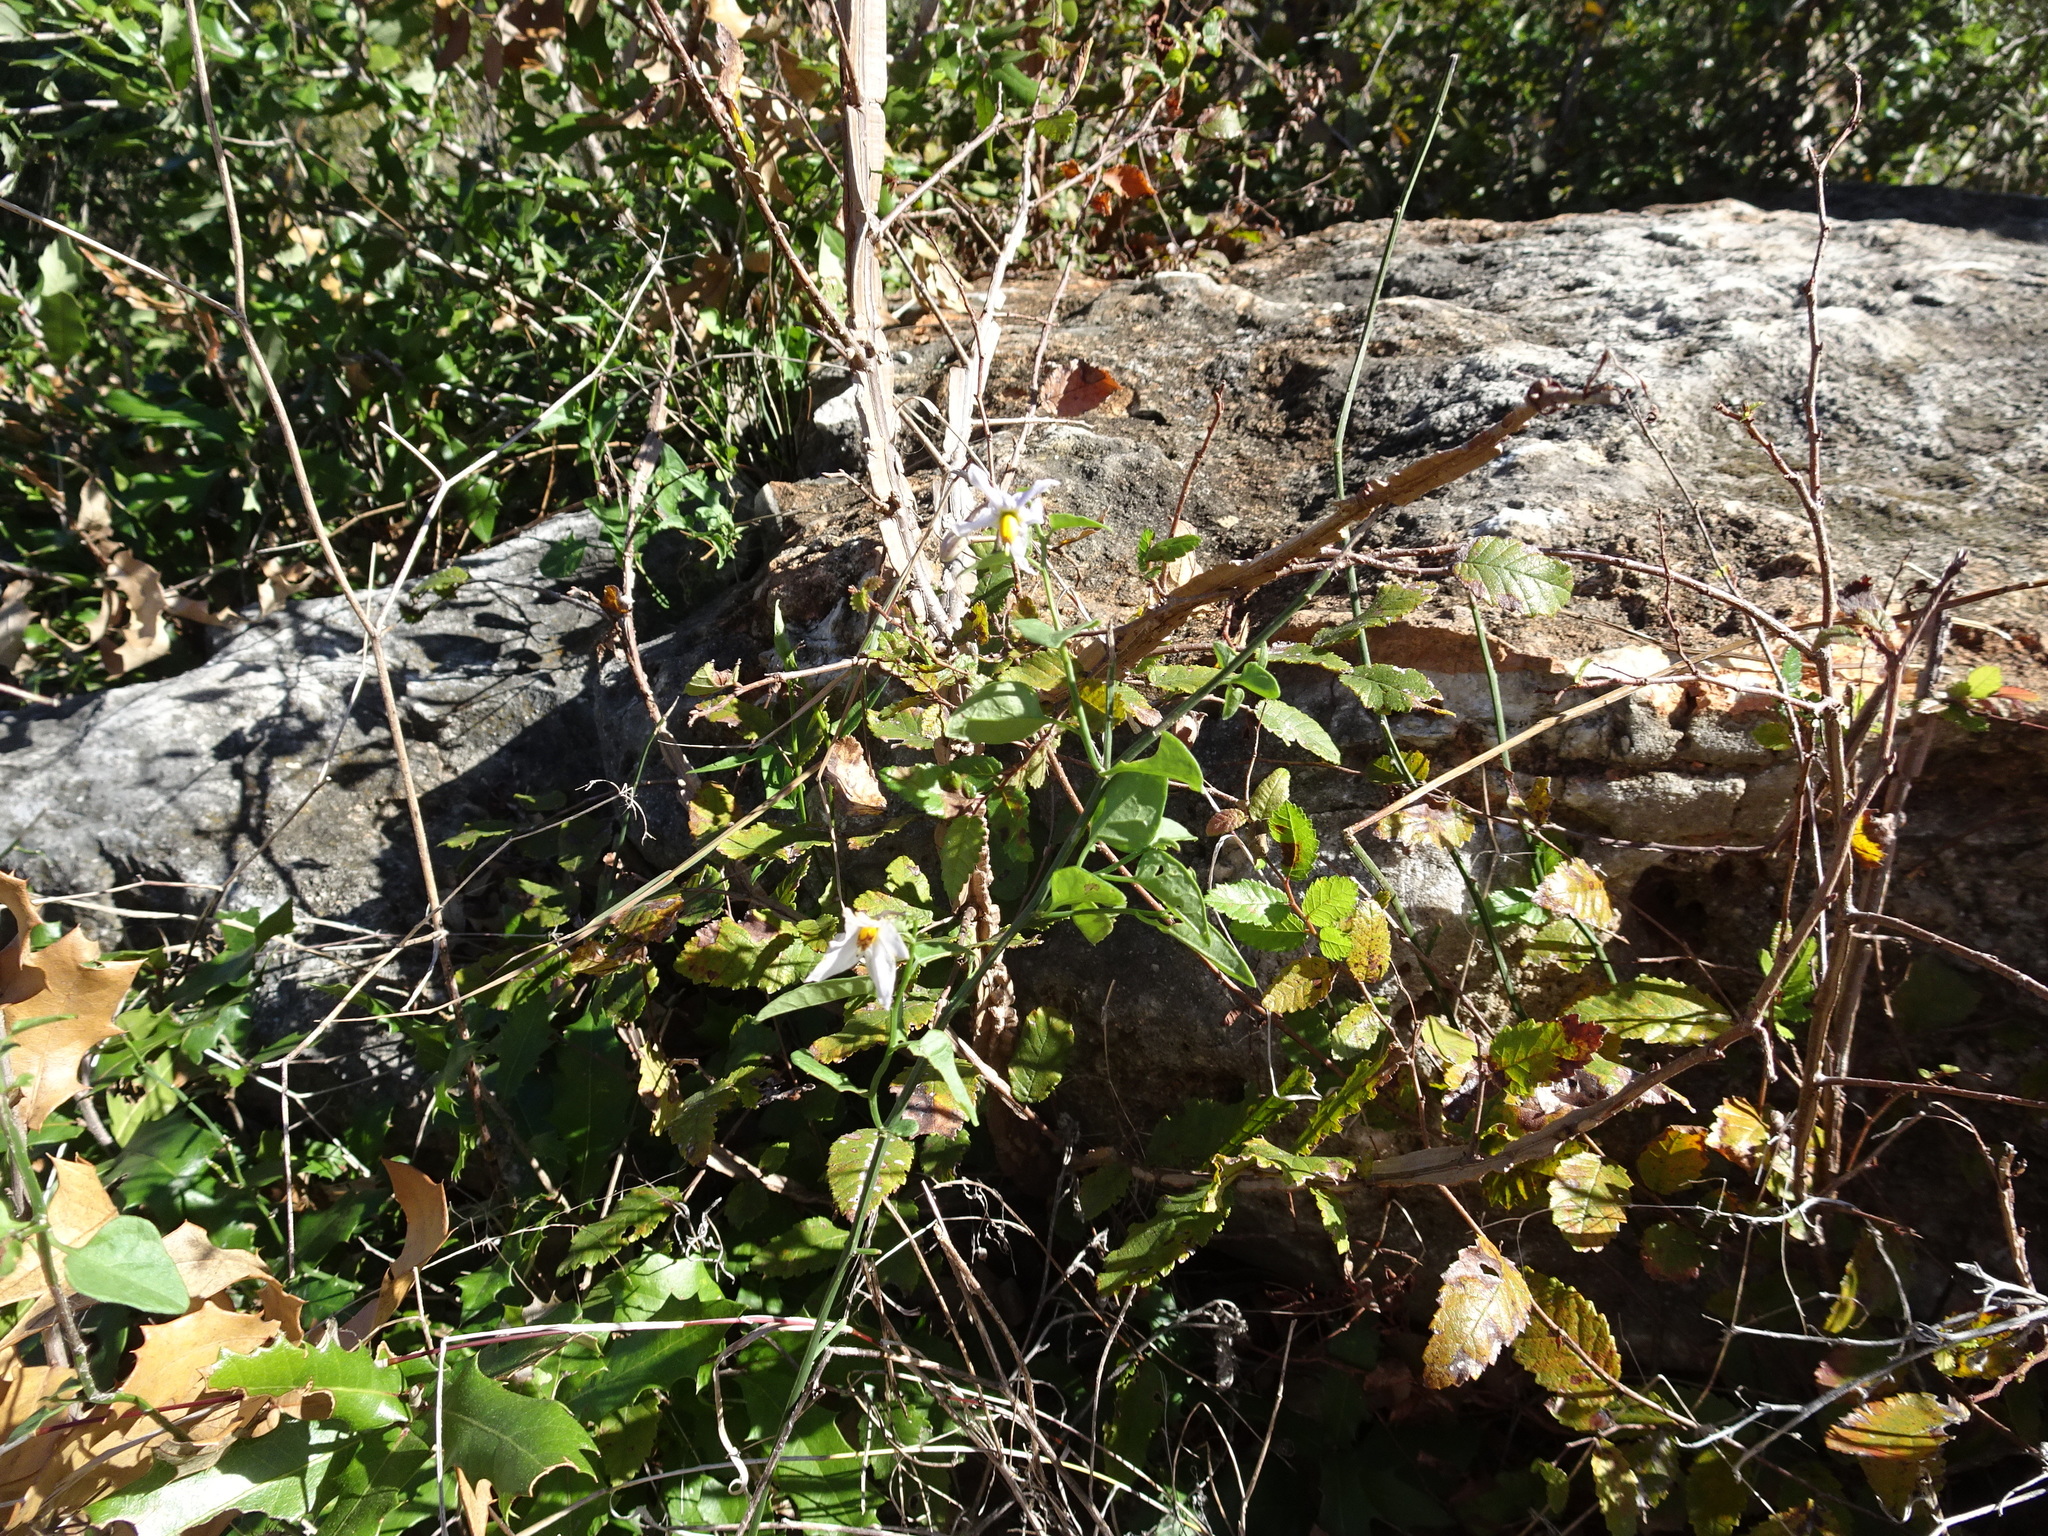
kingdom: Plantae
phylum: Tracheophyta
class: Magnoliopsida
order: Solanales
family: Solanaceae
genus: Solanum
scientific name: Solanum triquetrum
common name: Texas nightshade
